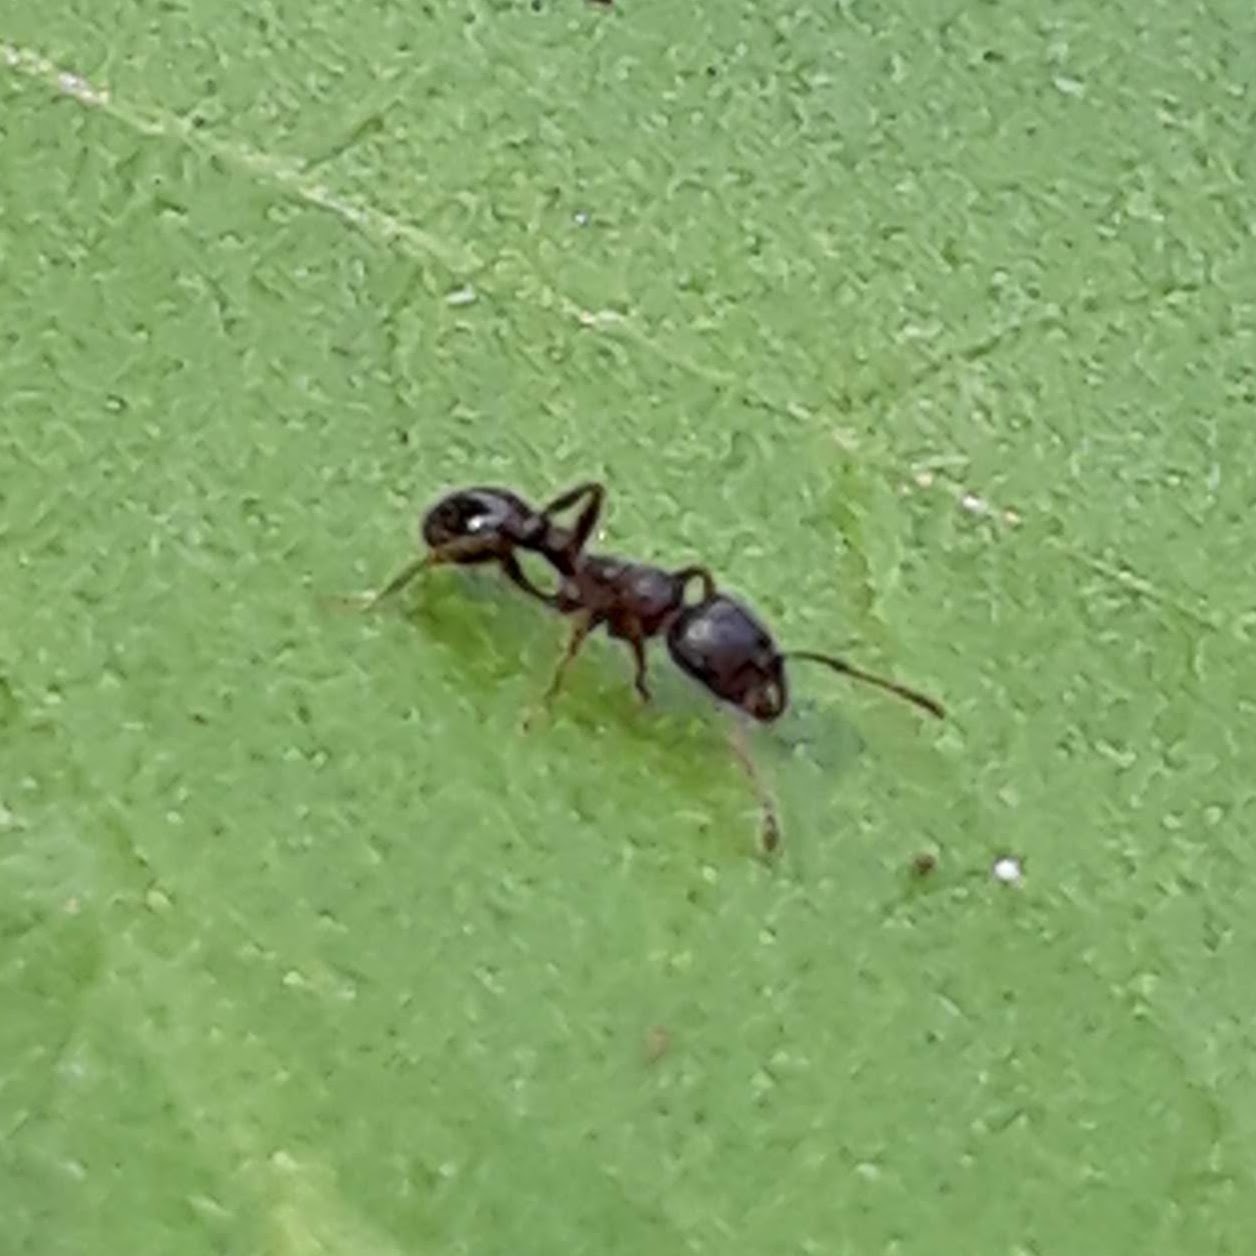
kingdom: Animalia
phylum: Arthropoda
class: Insecta
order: Hymenoptera
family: Formicidae
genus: Tetramorium
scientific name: Tetramorium immigrans
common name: Pavement ant
